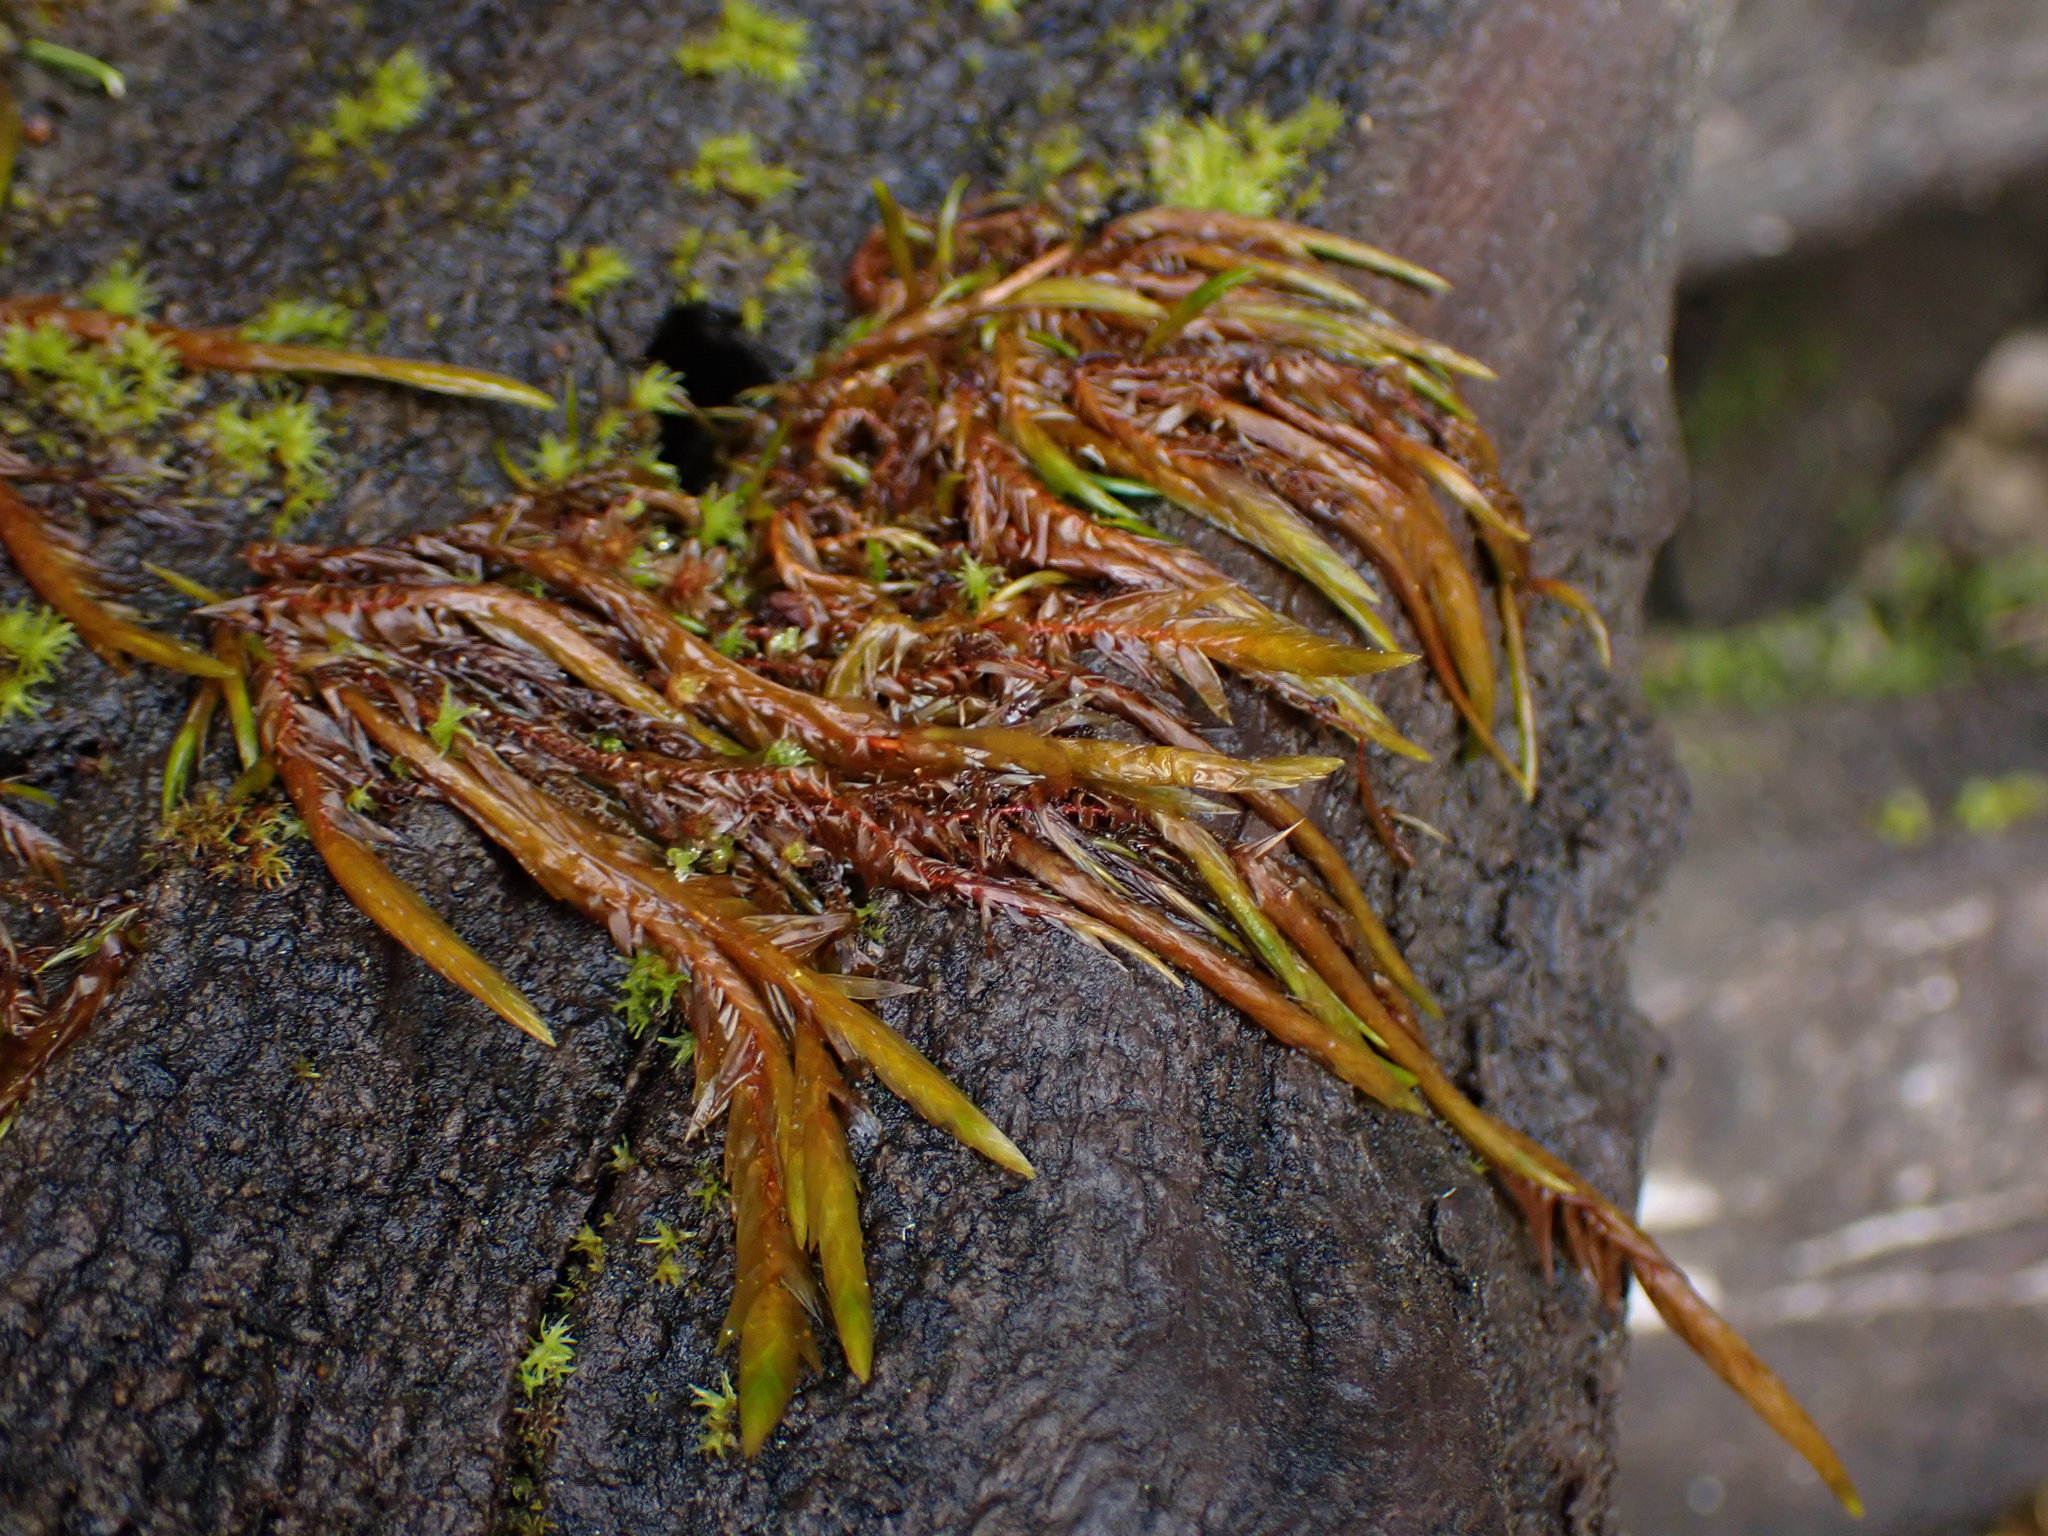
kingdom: Plantae
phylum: Bryophyta
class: Bryopsida
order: Hypnales
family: Fontinalaceae
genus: Fontinalis
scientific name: Fontinalis neomexicana
